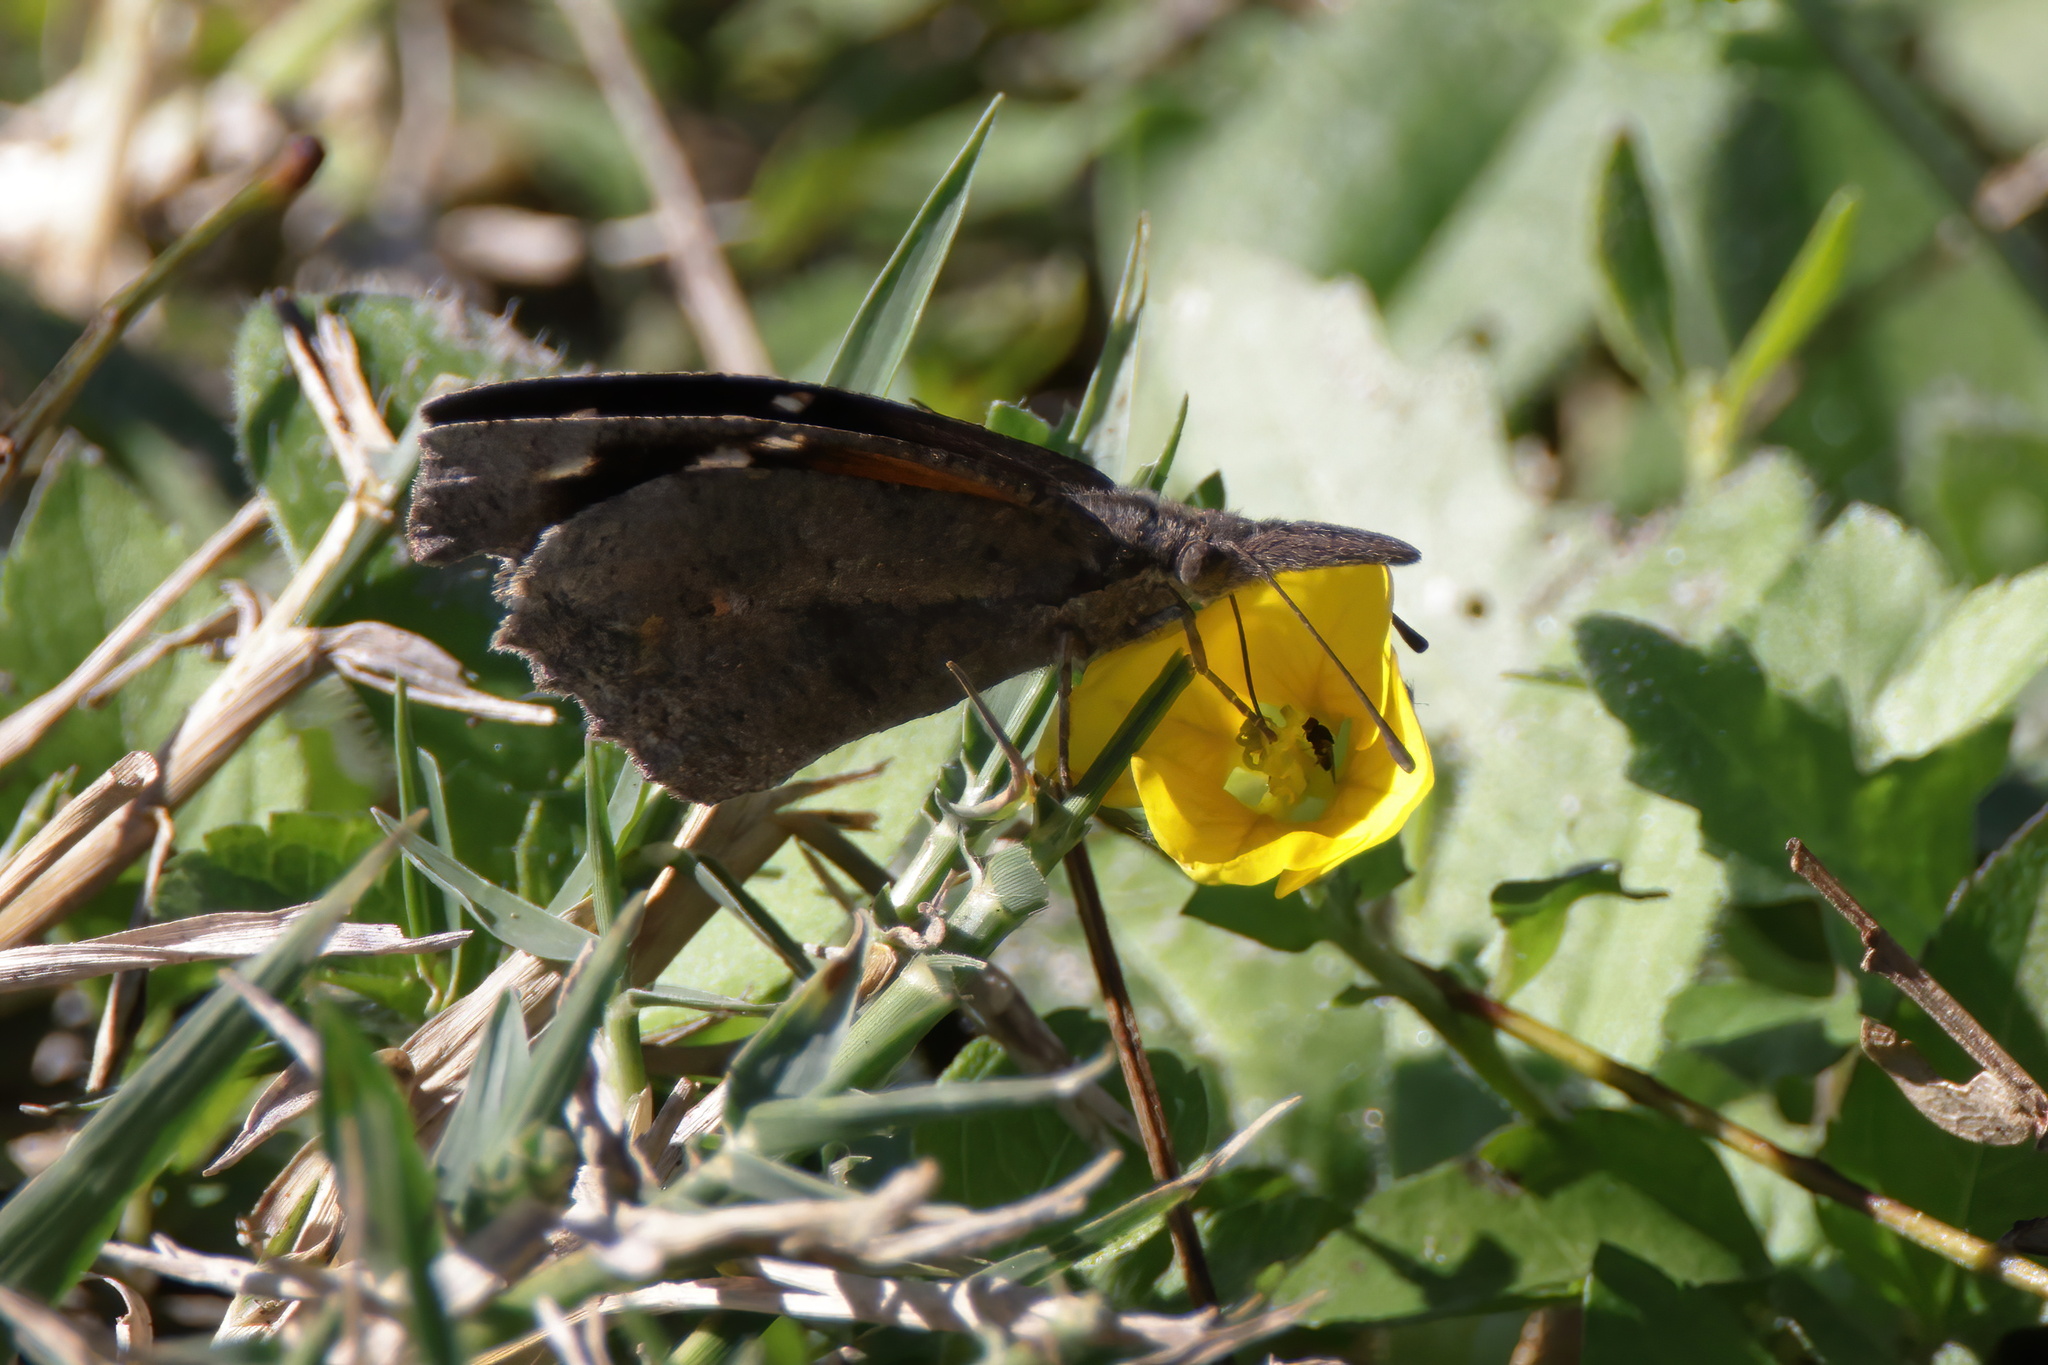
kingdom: Animalia
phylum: Arthropoda
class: Insecta
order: Lepidoptera
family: Nymphalidae
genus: Libytheana
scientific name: Libytheana carinenta
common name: American snout
